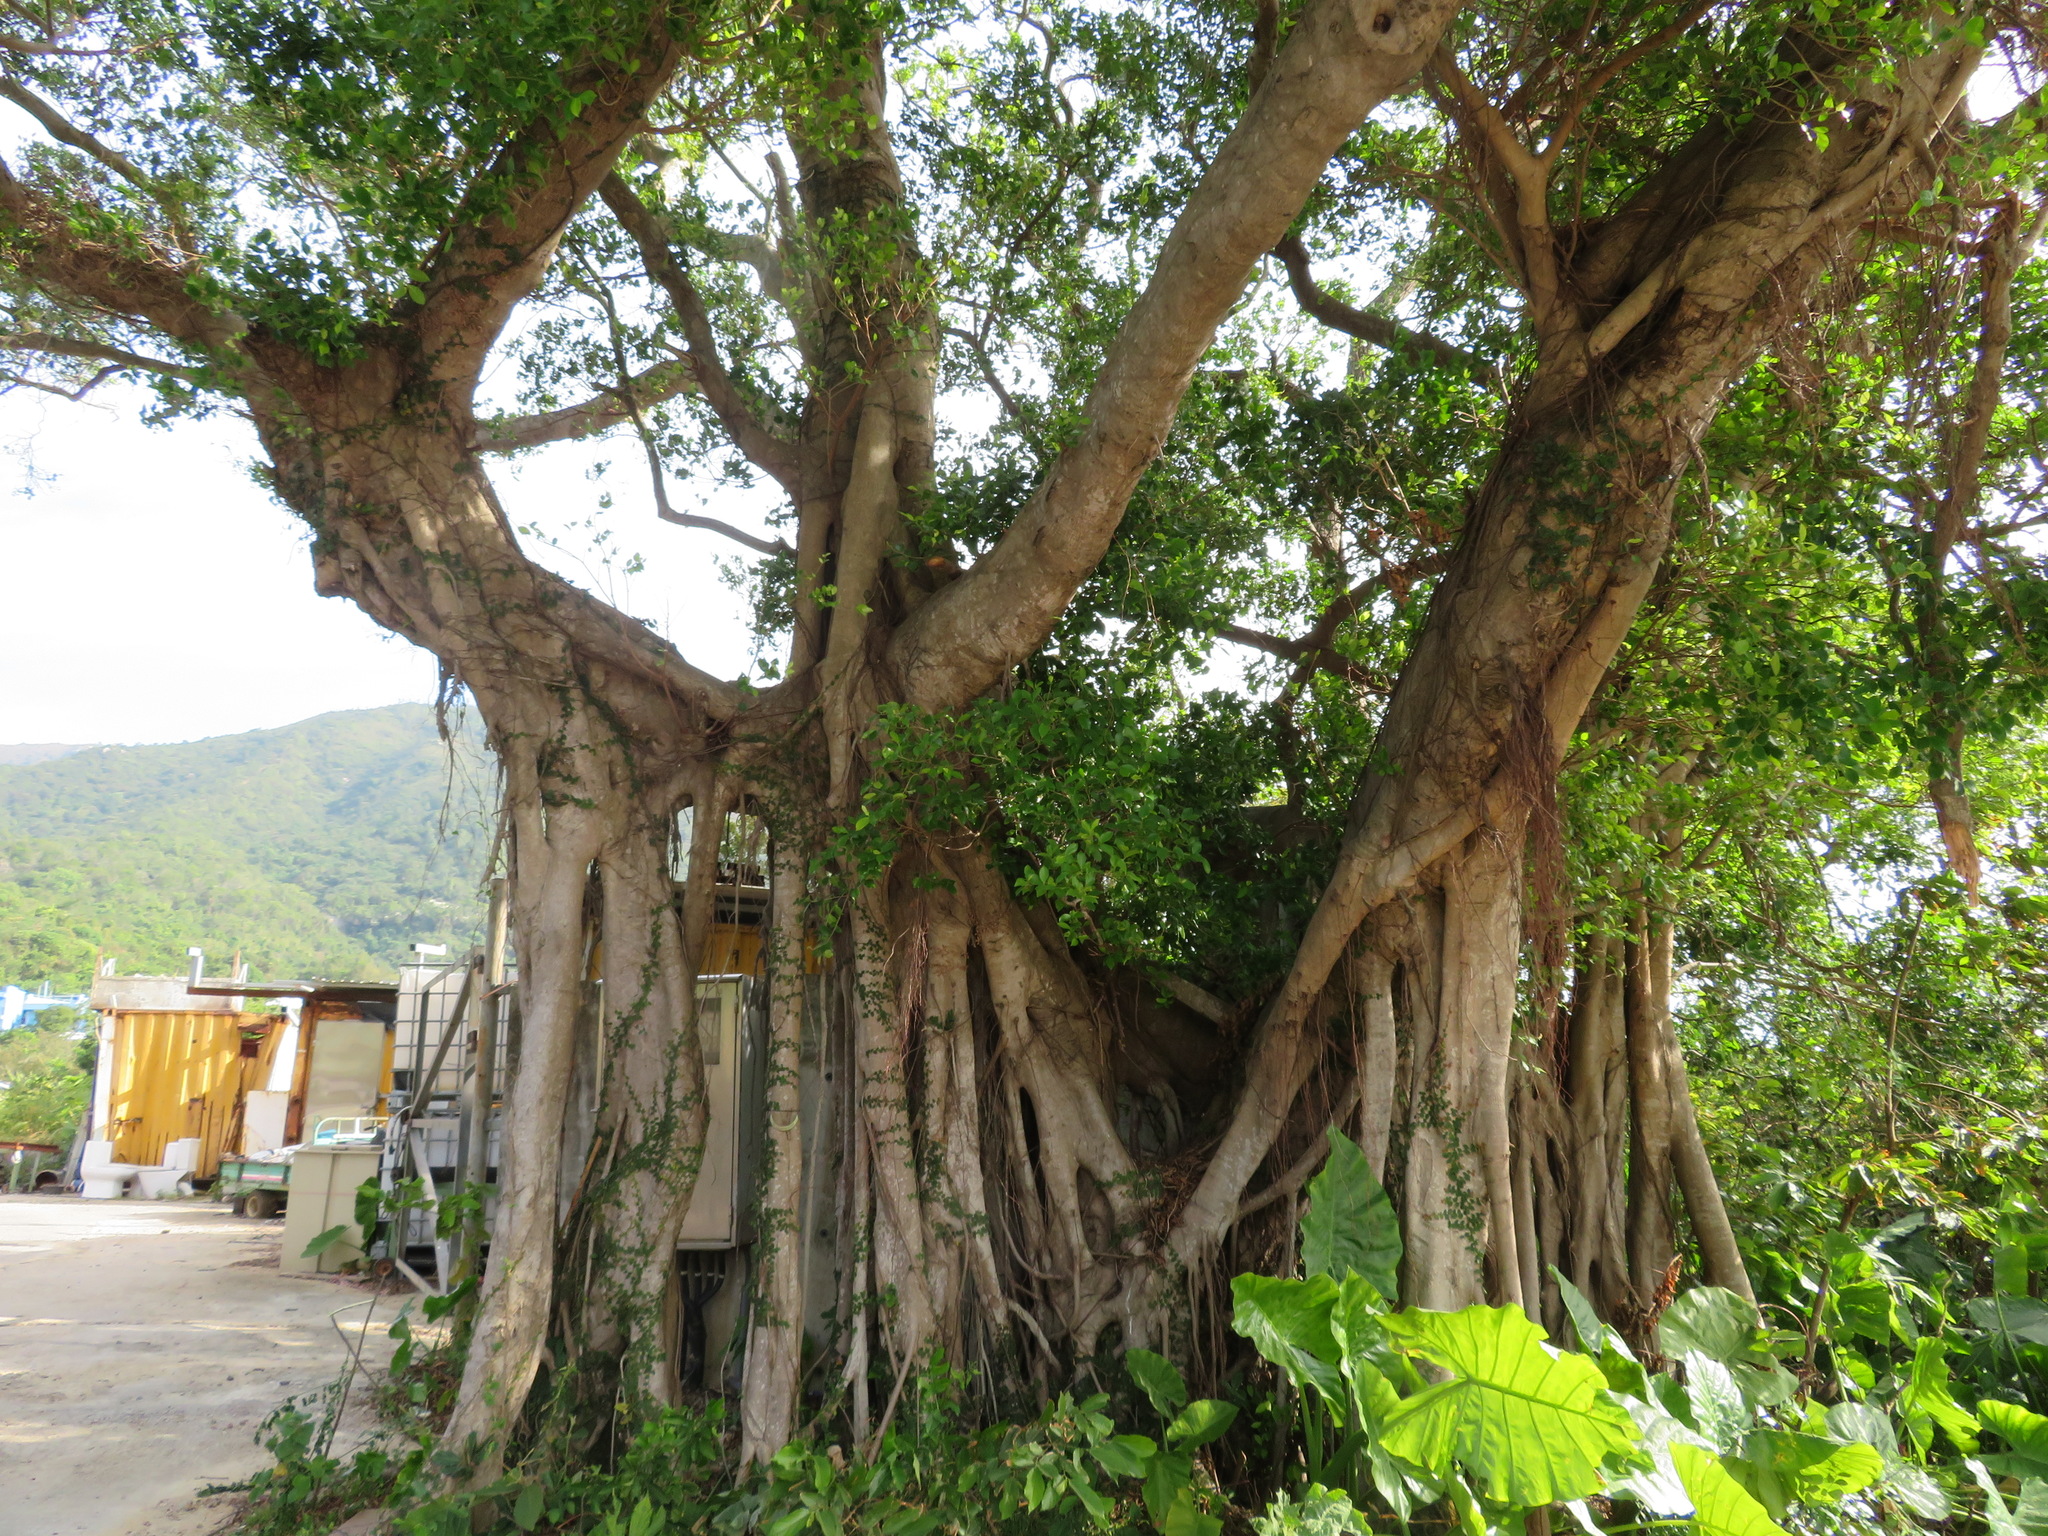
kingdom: Plantae
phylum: Tracheophyta
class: Magnoliopsida
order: Rosales
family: Moraceae
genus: Ficus
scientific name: Ficus microcarpa
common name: Chinese banyan
